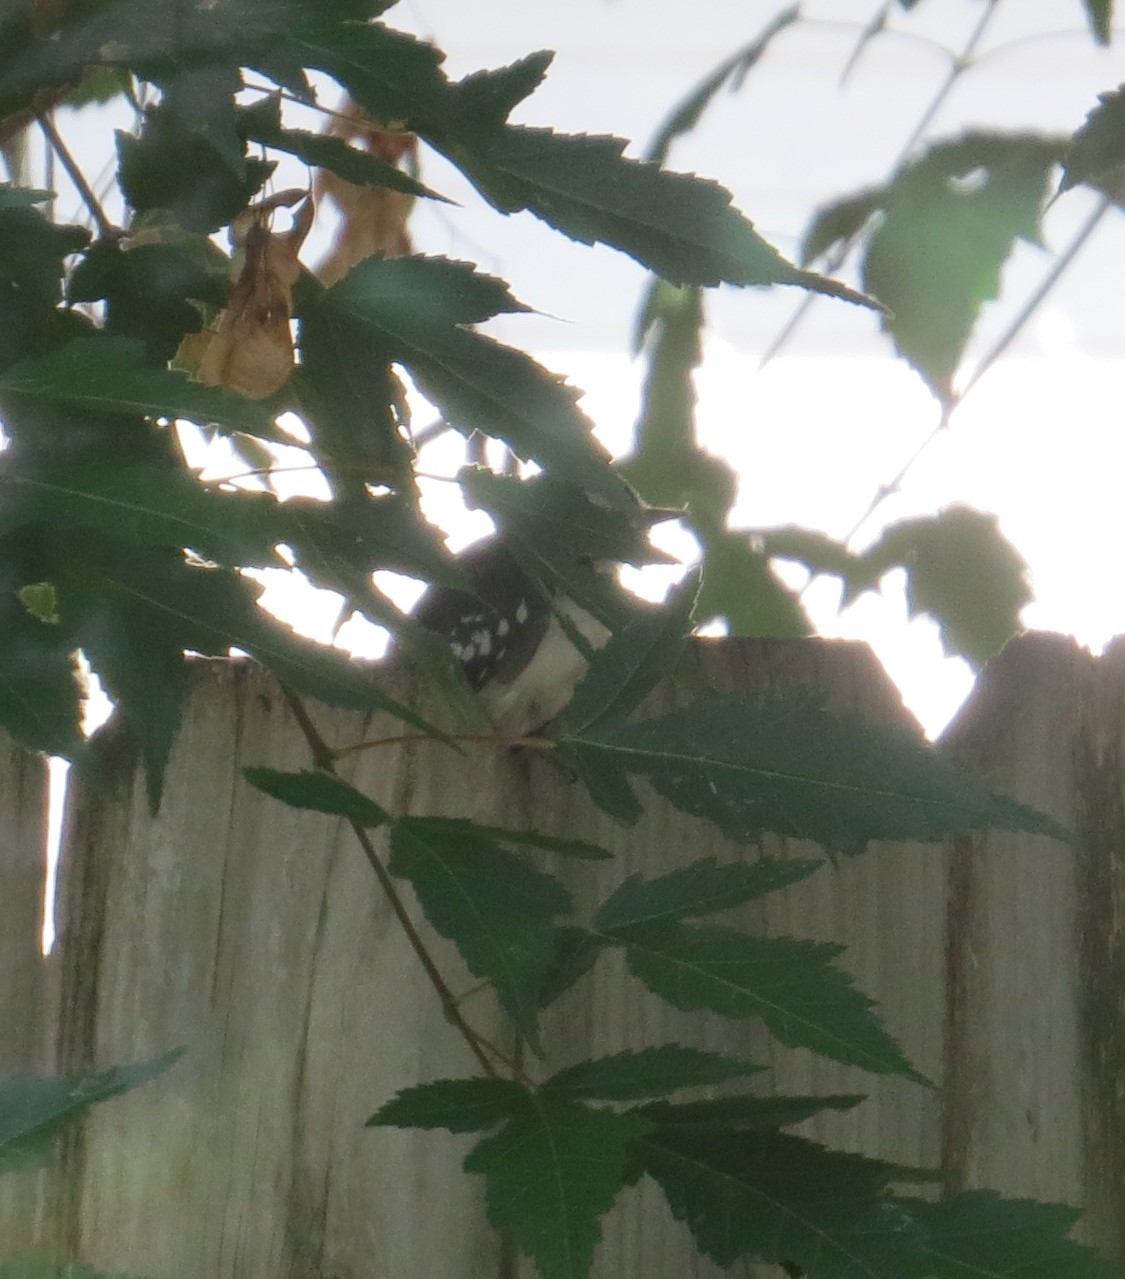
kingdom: Animalia
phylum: Chordata
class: Aves
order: Piciformes
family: Picidae
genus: Dryobates
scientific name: Dryobates pubescens
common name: Downy woodpecker
